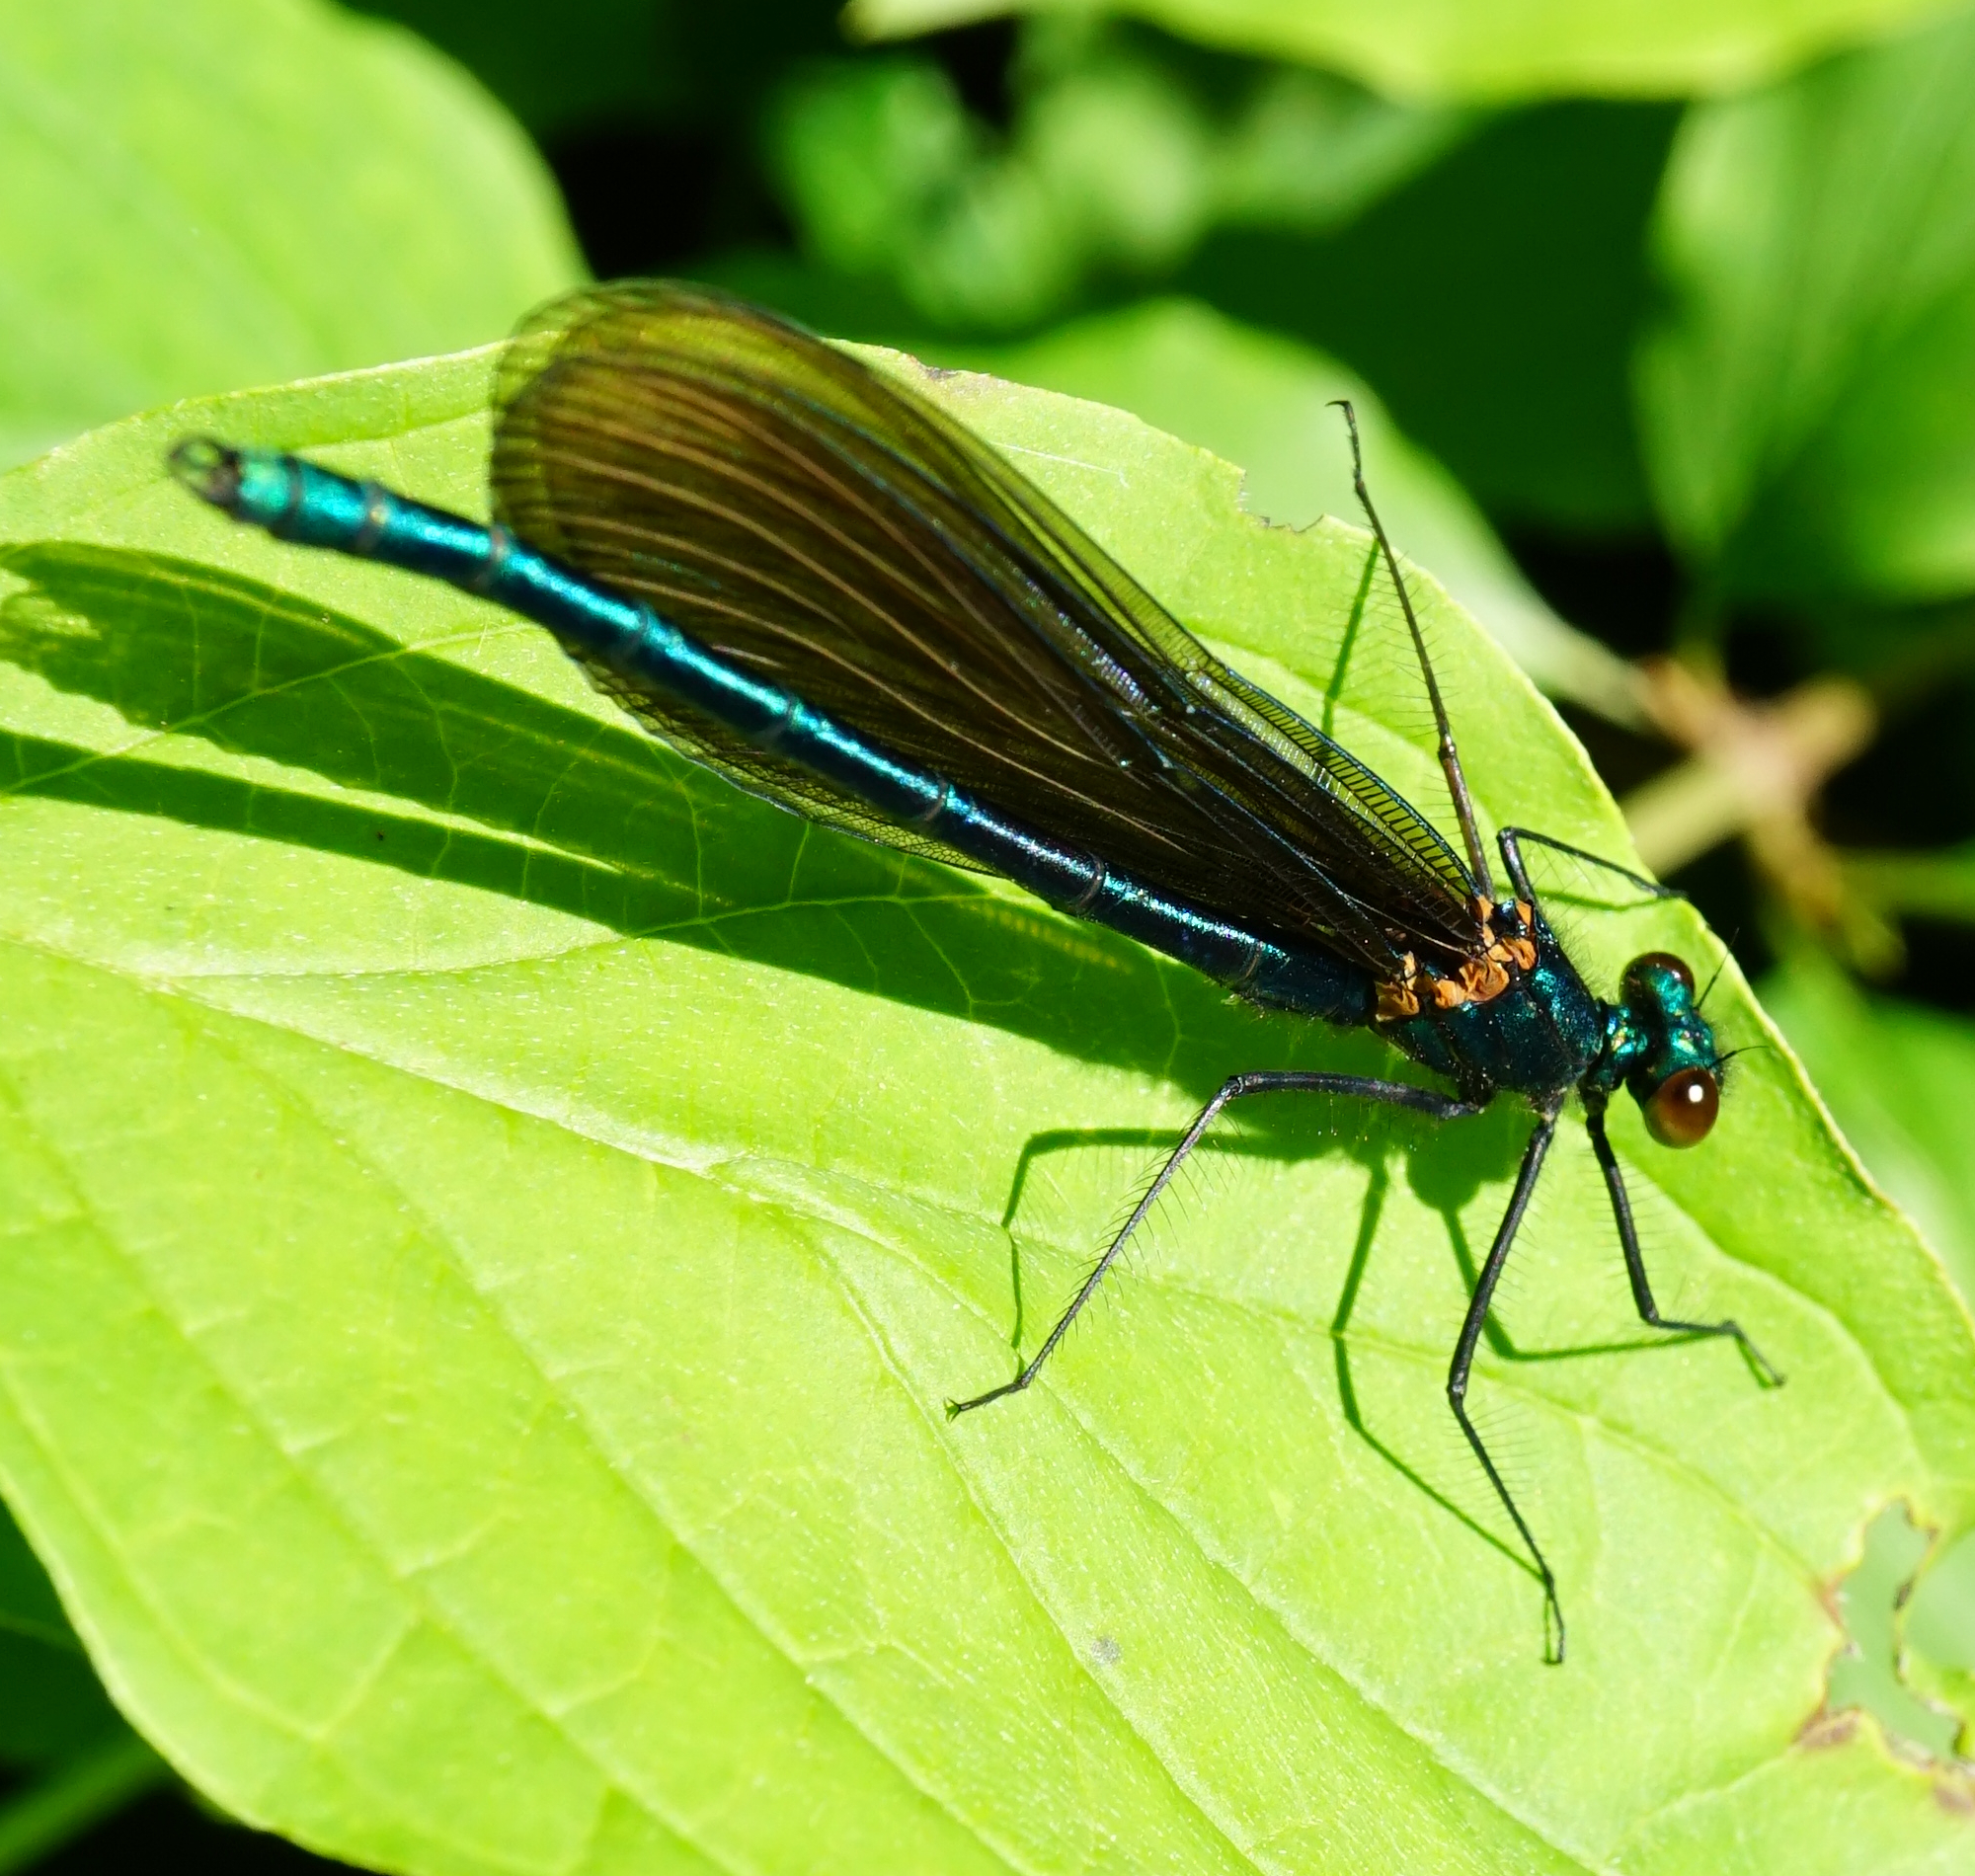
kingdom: Animalia
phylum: Arthropoda
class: Insecta
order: Odonata
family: Calopterygidae
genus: Calopteryx
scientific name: Calopteryx virgo
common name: Beautiful demoiselle
